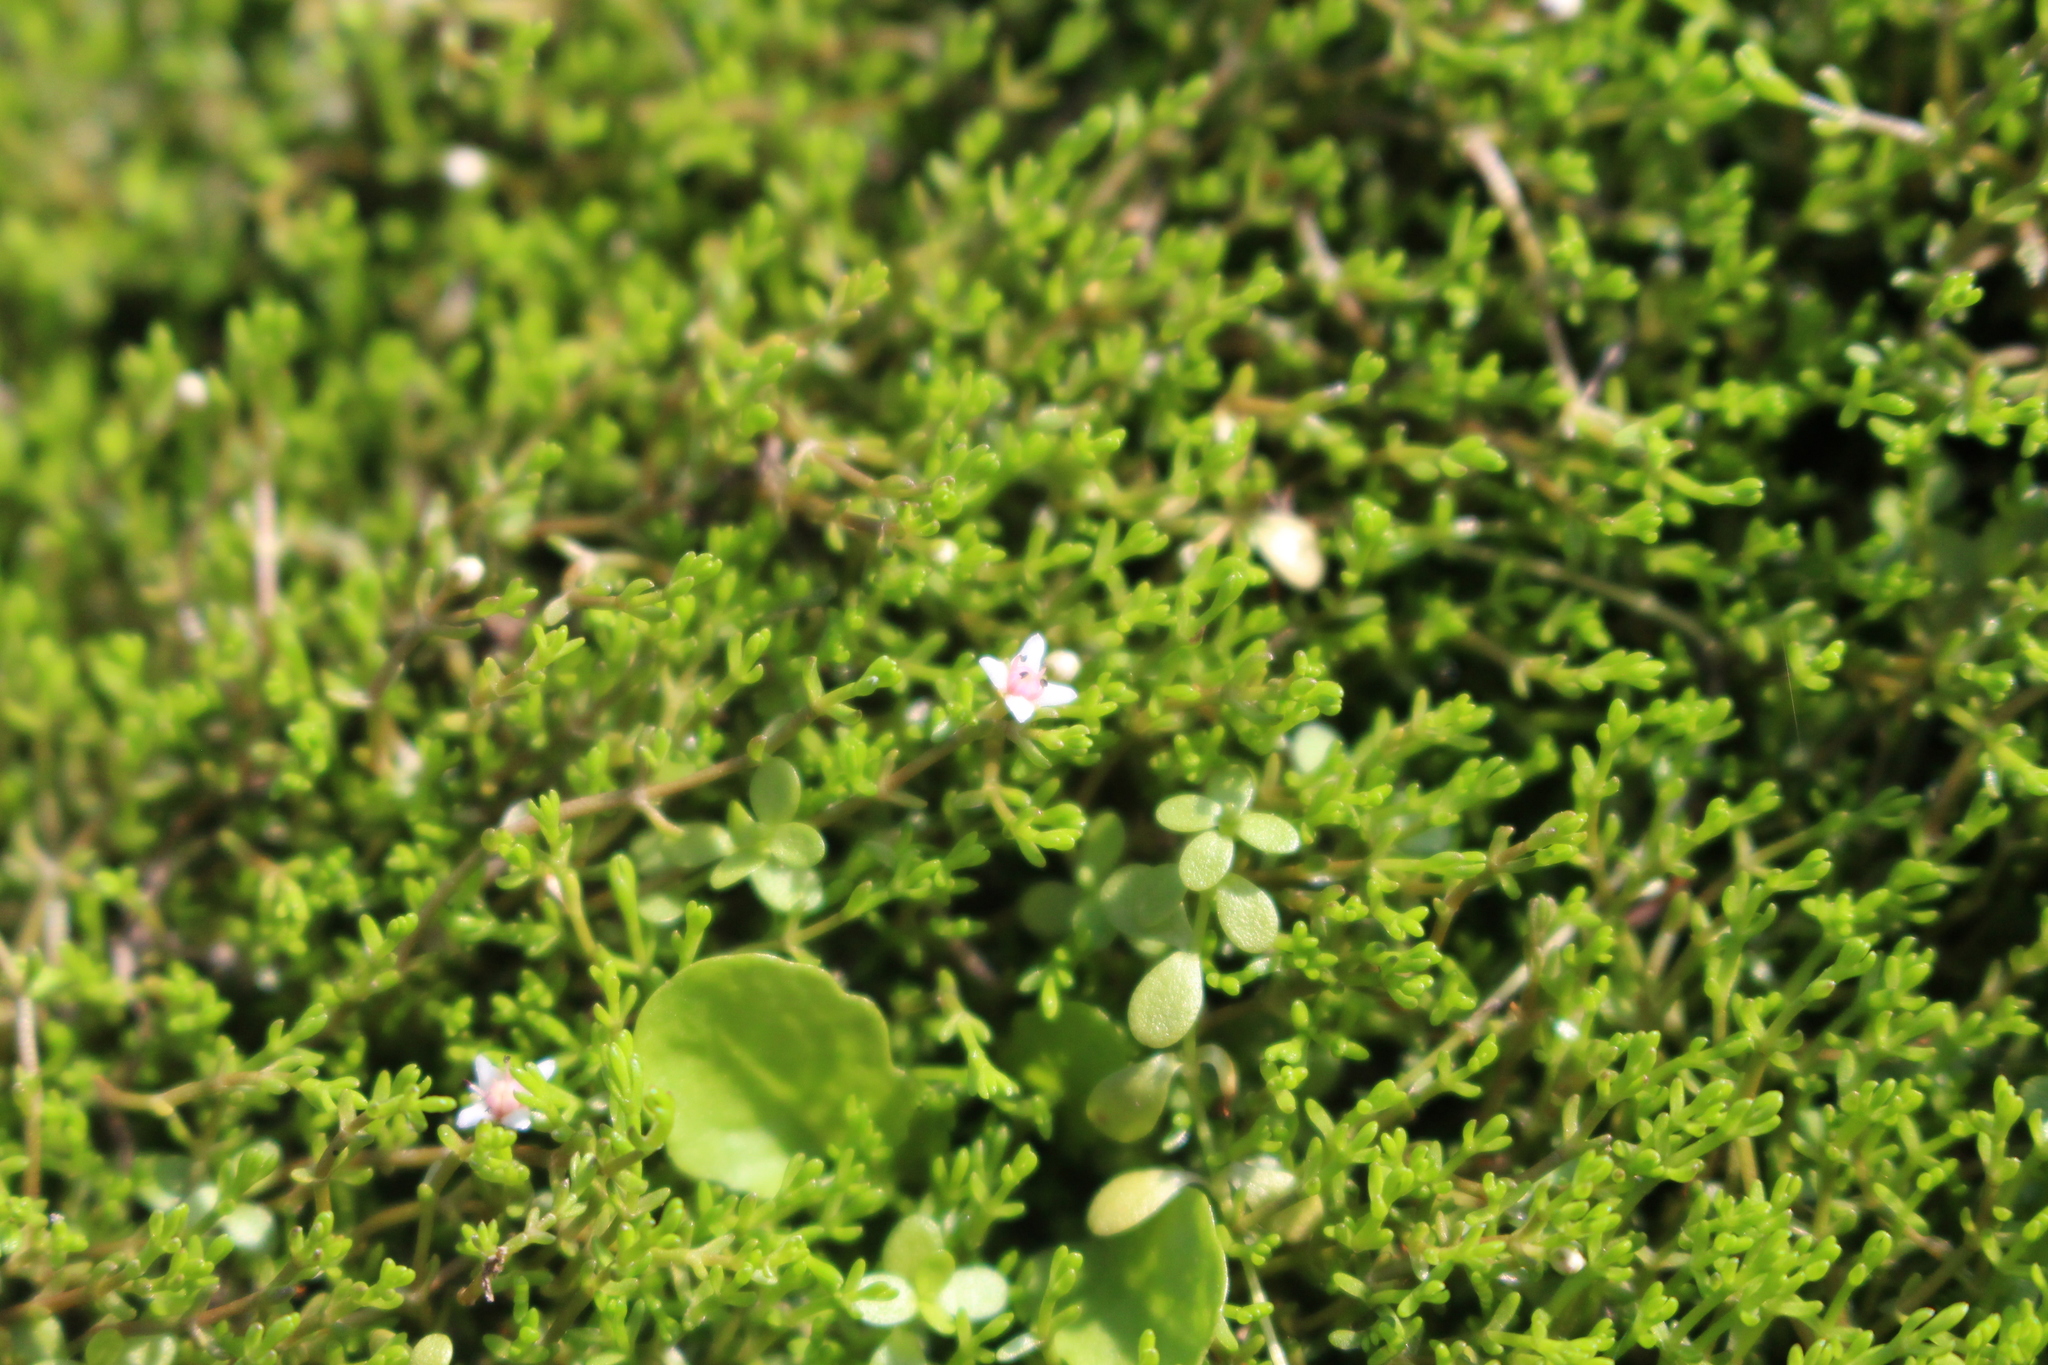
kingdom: Plantae
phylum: Tracheophyta
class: Magnoliopsida
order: Saxifragales
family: Crassulaceae
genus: Crassula
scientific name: Crassula sinclairii
